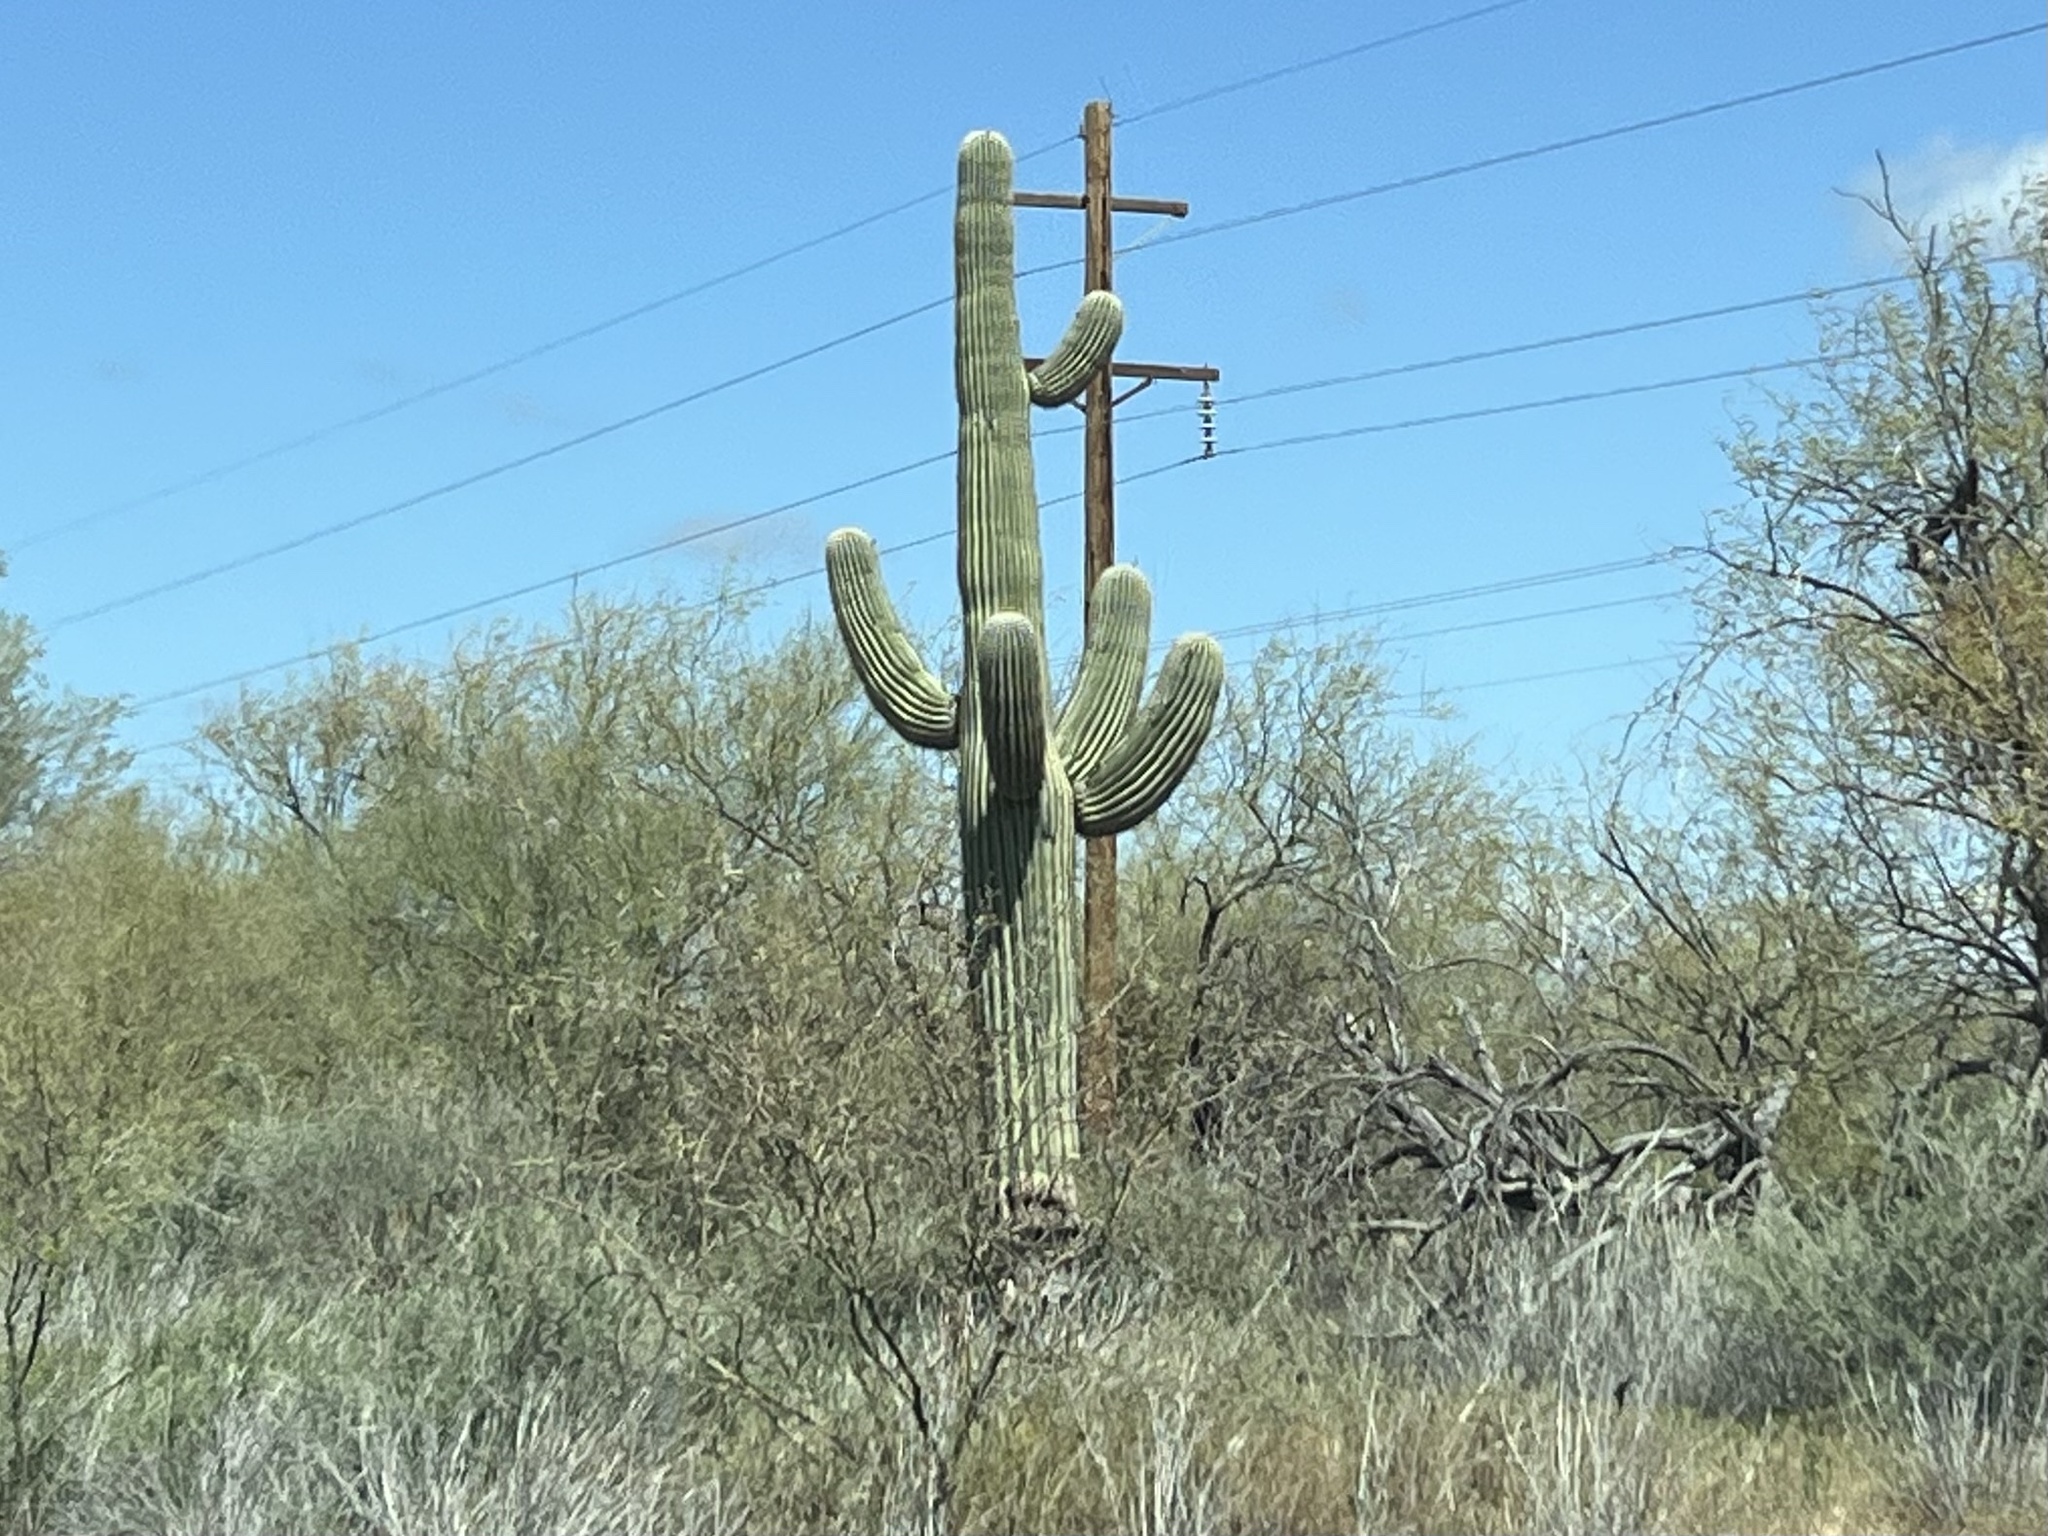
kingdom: Plantae
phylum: Tracheophyta
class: Magnoliopsida
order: Caryophyllales
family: Cactaceae
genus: Carnegiea
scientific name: Carnegiea gigantea
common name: Saguaro
